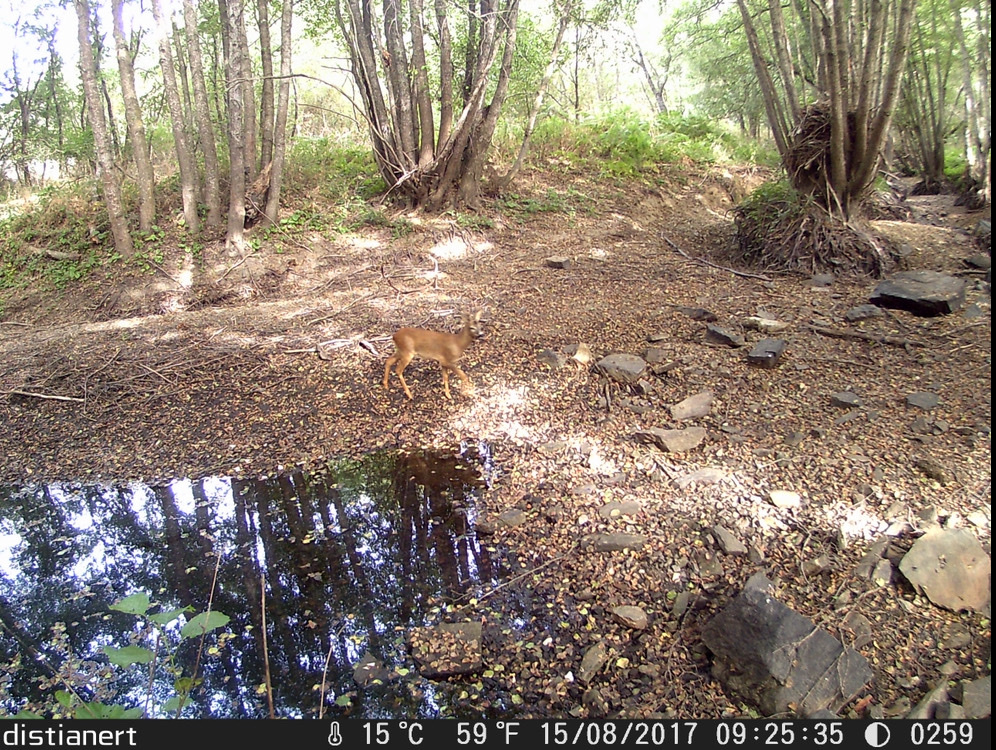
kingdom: Animalia
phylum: Chordata
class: Mammalia
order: Artiodactyla
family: Cervidae
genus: Capreolus
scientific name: Capreolus capreolus
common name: Western roe deer
